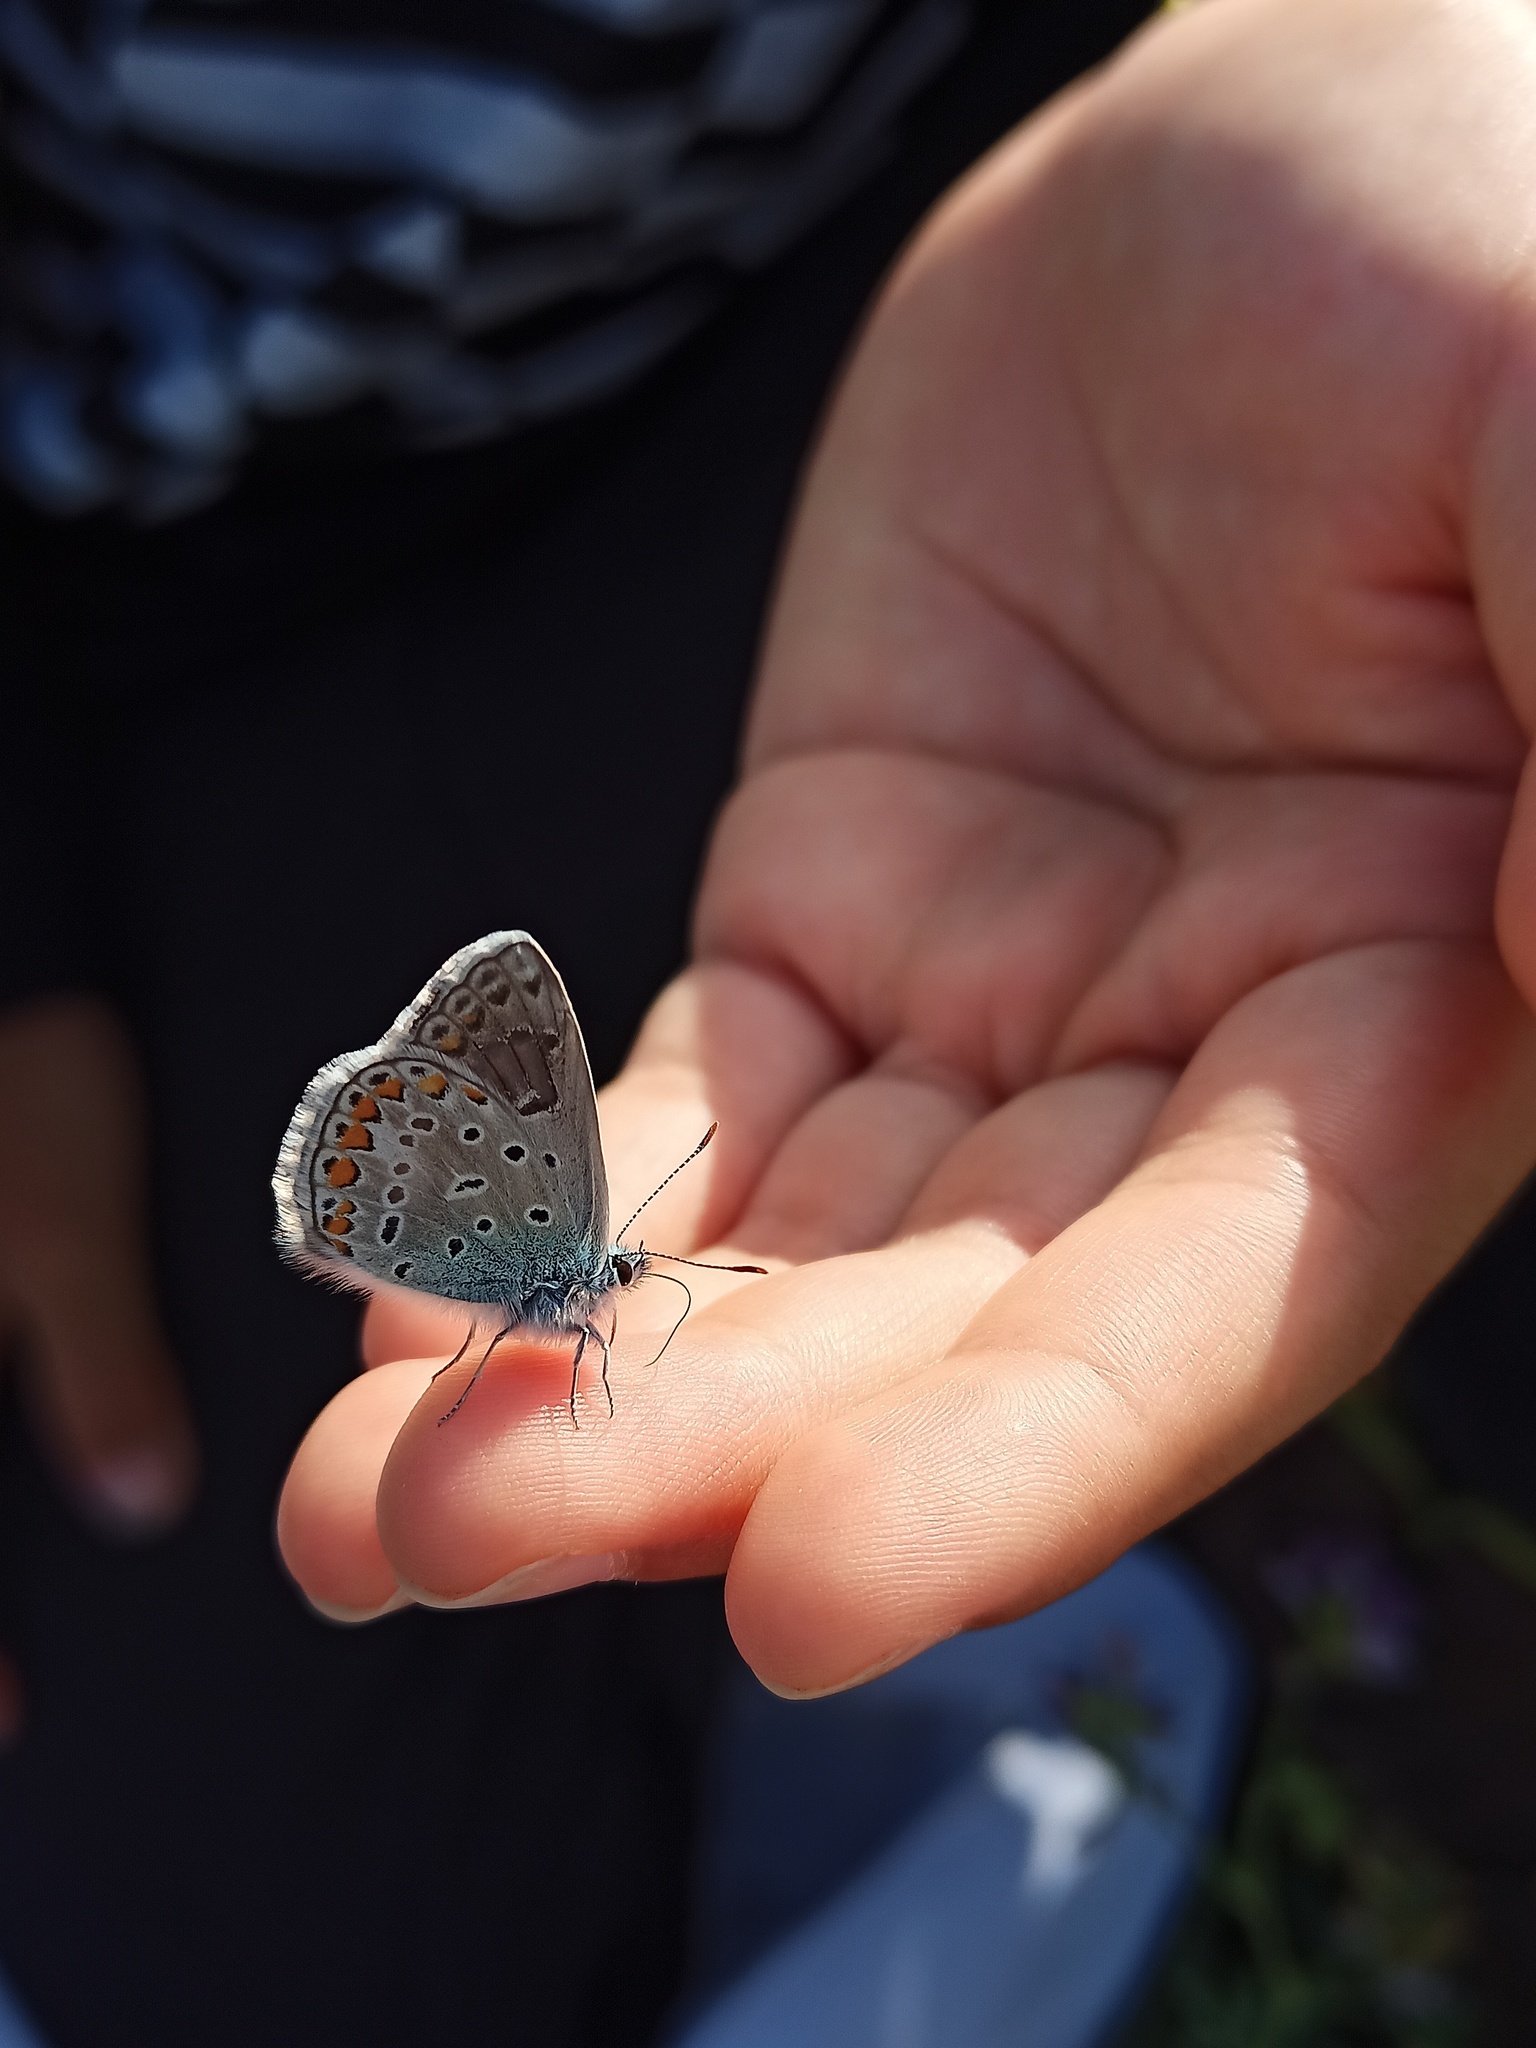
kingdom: Animalia
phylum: Arthropoda
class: Insecta
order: Lepidoptera
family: Lycaenidae
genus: Polyommatus
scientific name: Polyommatus icarus
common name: Common blue
